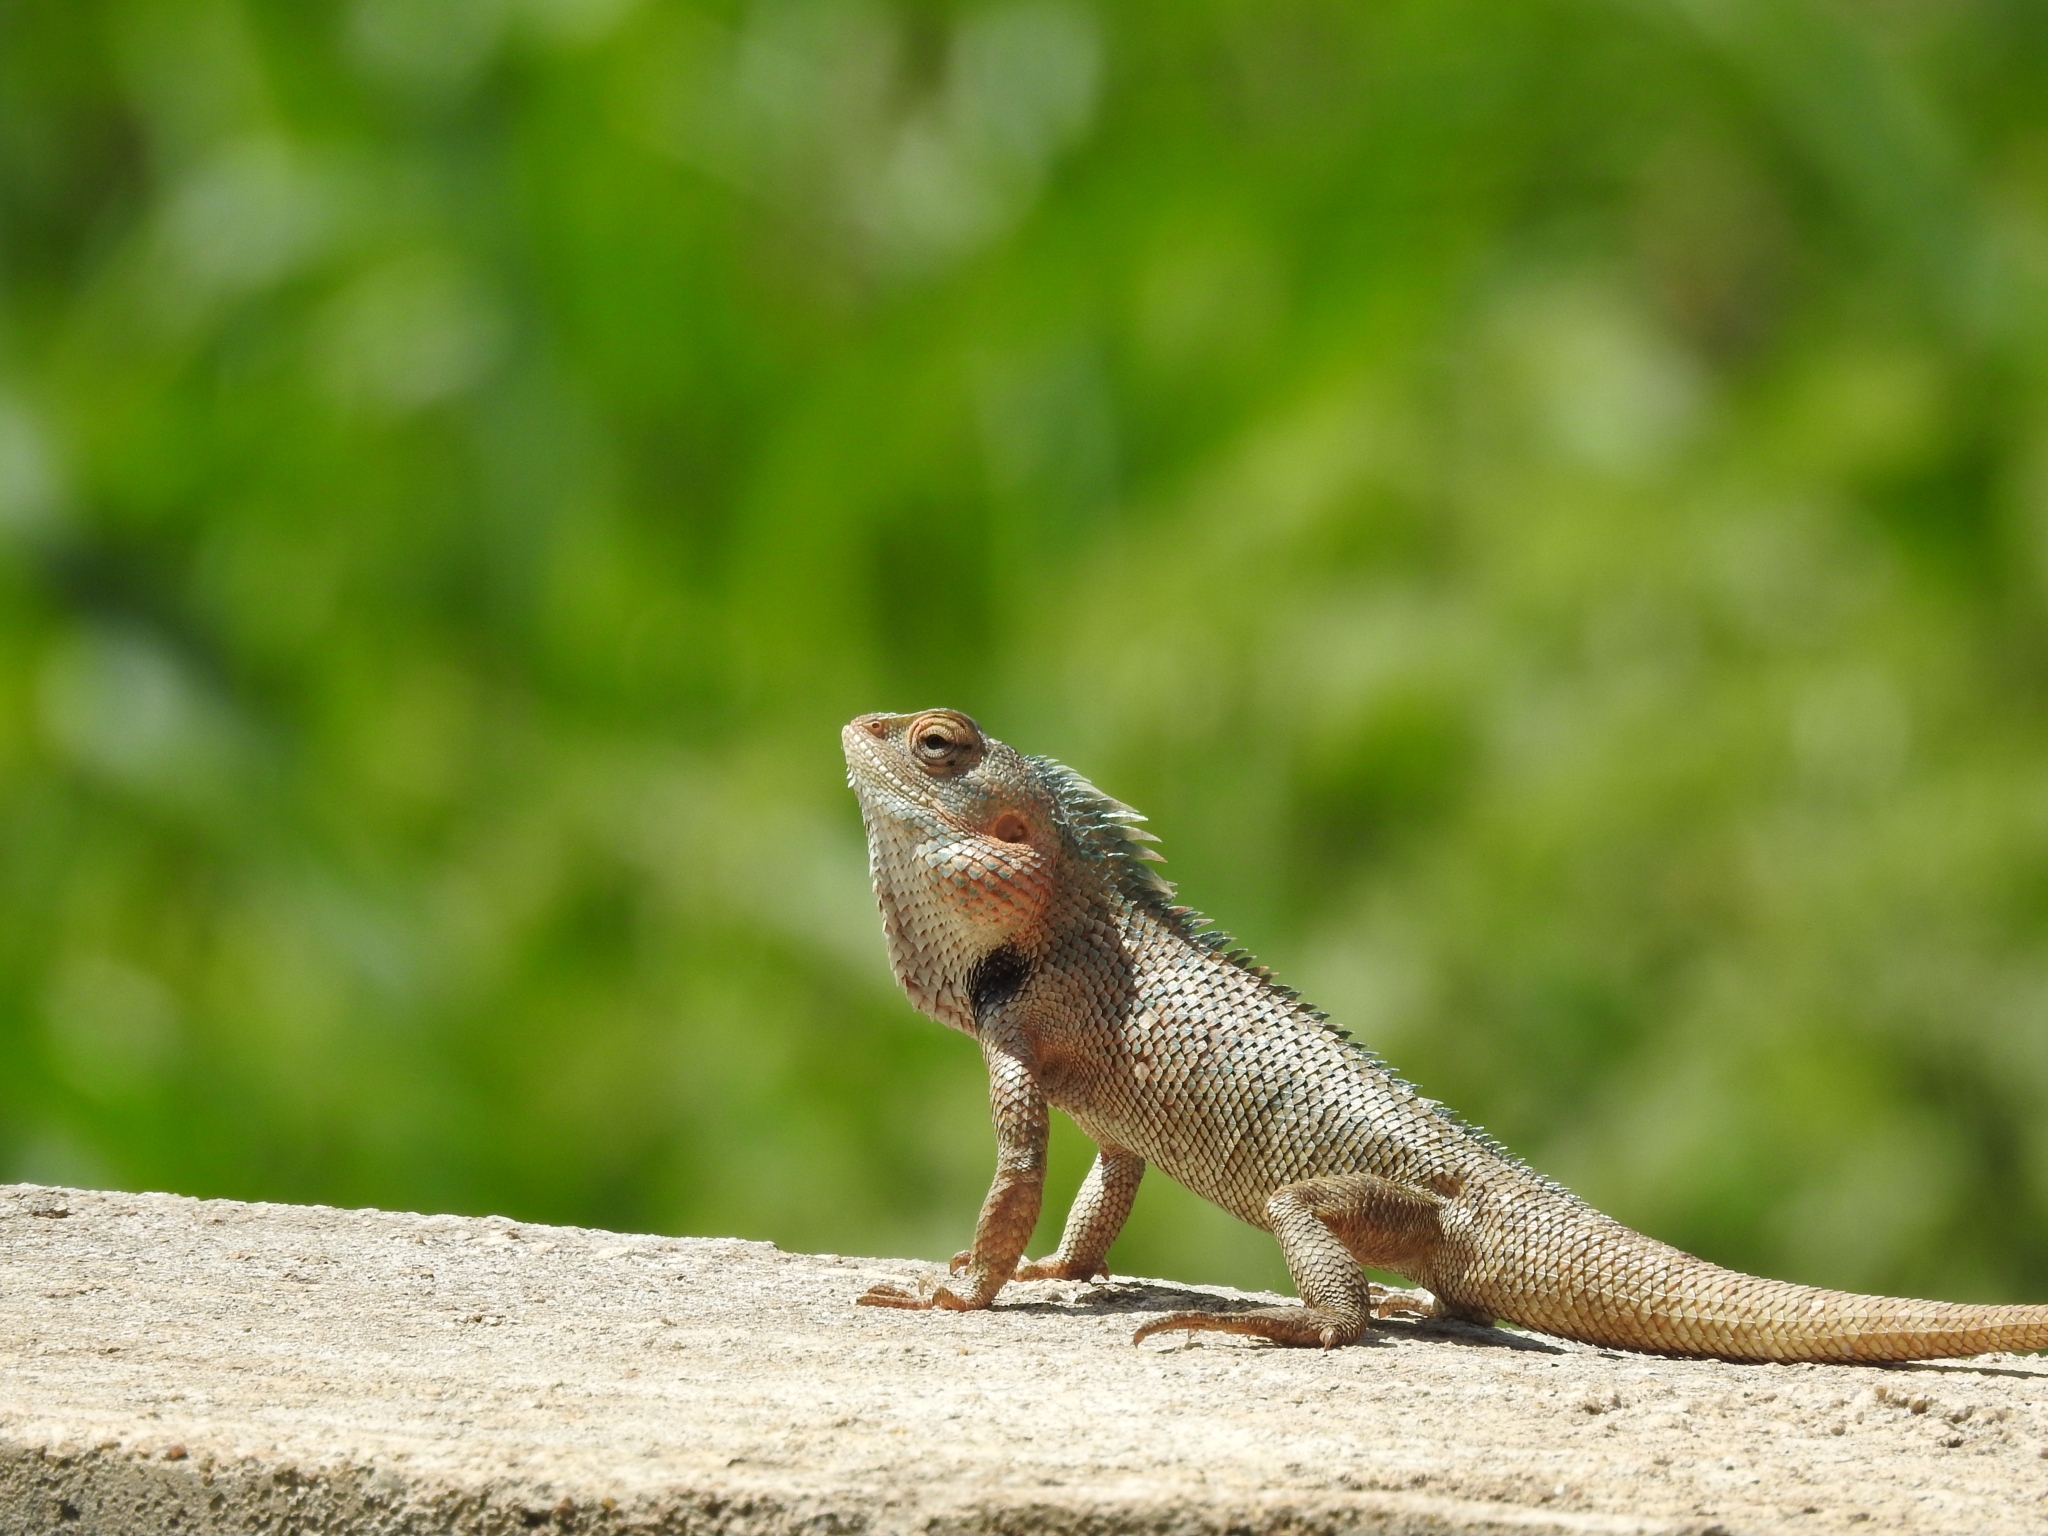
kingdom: Animalia
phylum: Chordata
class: Squamata
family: Agamidae
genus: Calotes
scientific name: Calotes versicolor
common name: Oriental garden lizard
